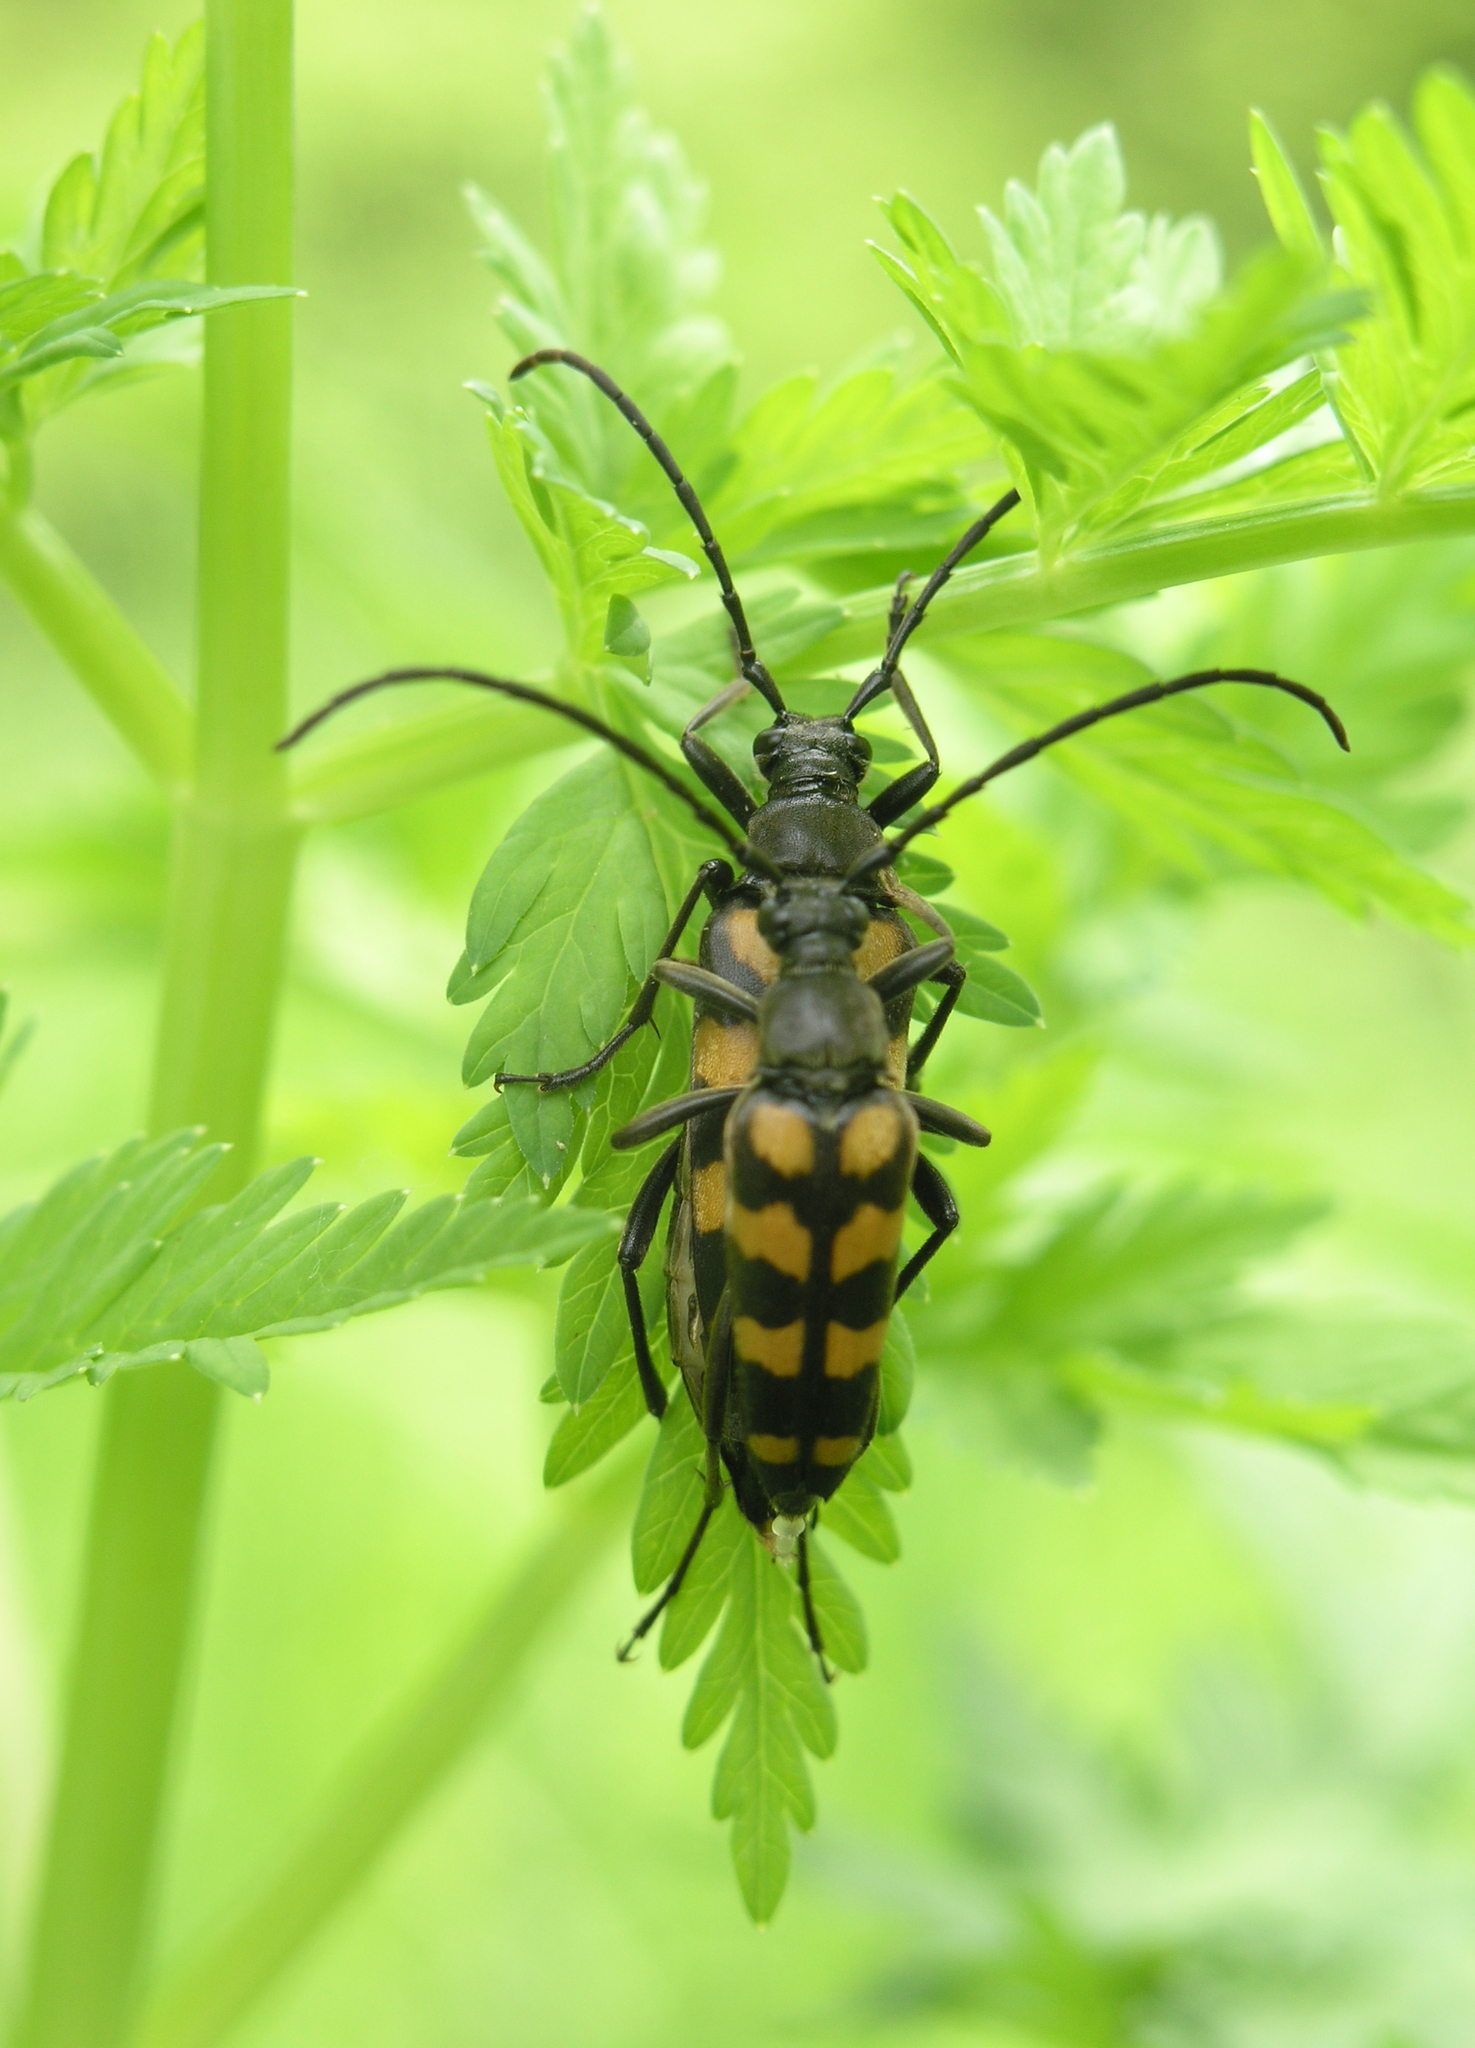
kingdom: Animalia
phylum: Arthropoda
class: Insecta
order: Coleoptera
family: Cerambycidae
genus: Leptura
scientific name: Leptura quadrifasciata
